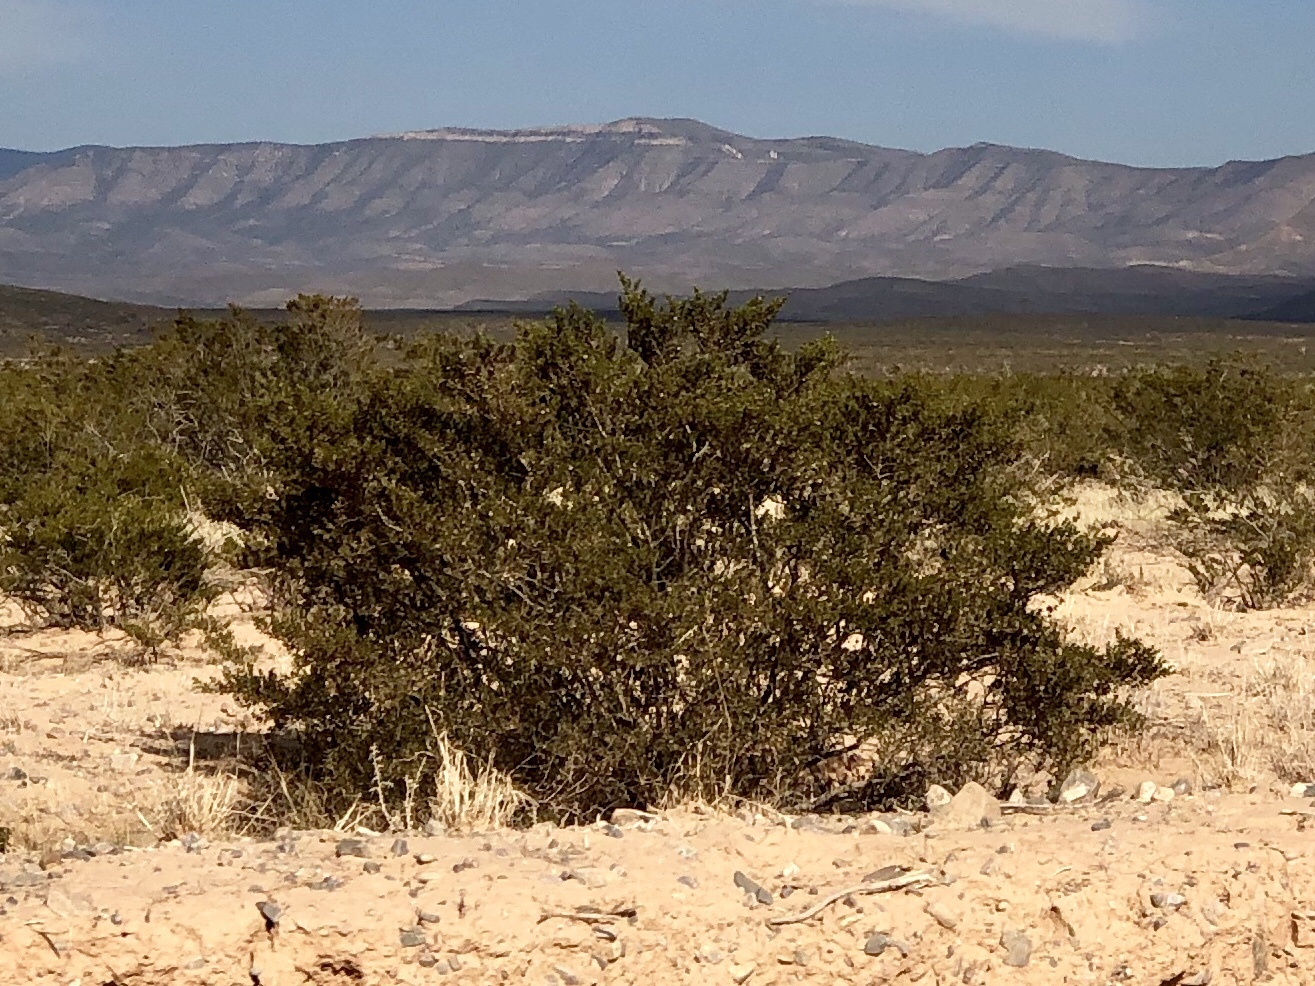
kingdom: Plantae
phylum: Tracheophyta
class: Magnoliopsida
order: Zygophyllales
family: Zygophyllaceae
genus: Larrea
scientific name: Larrea tridentata
